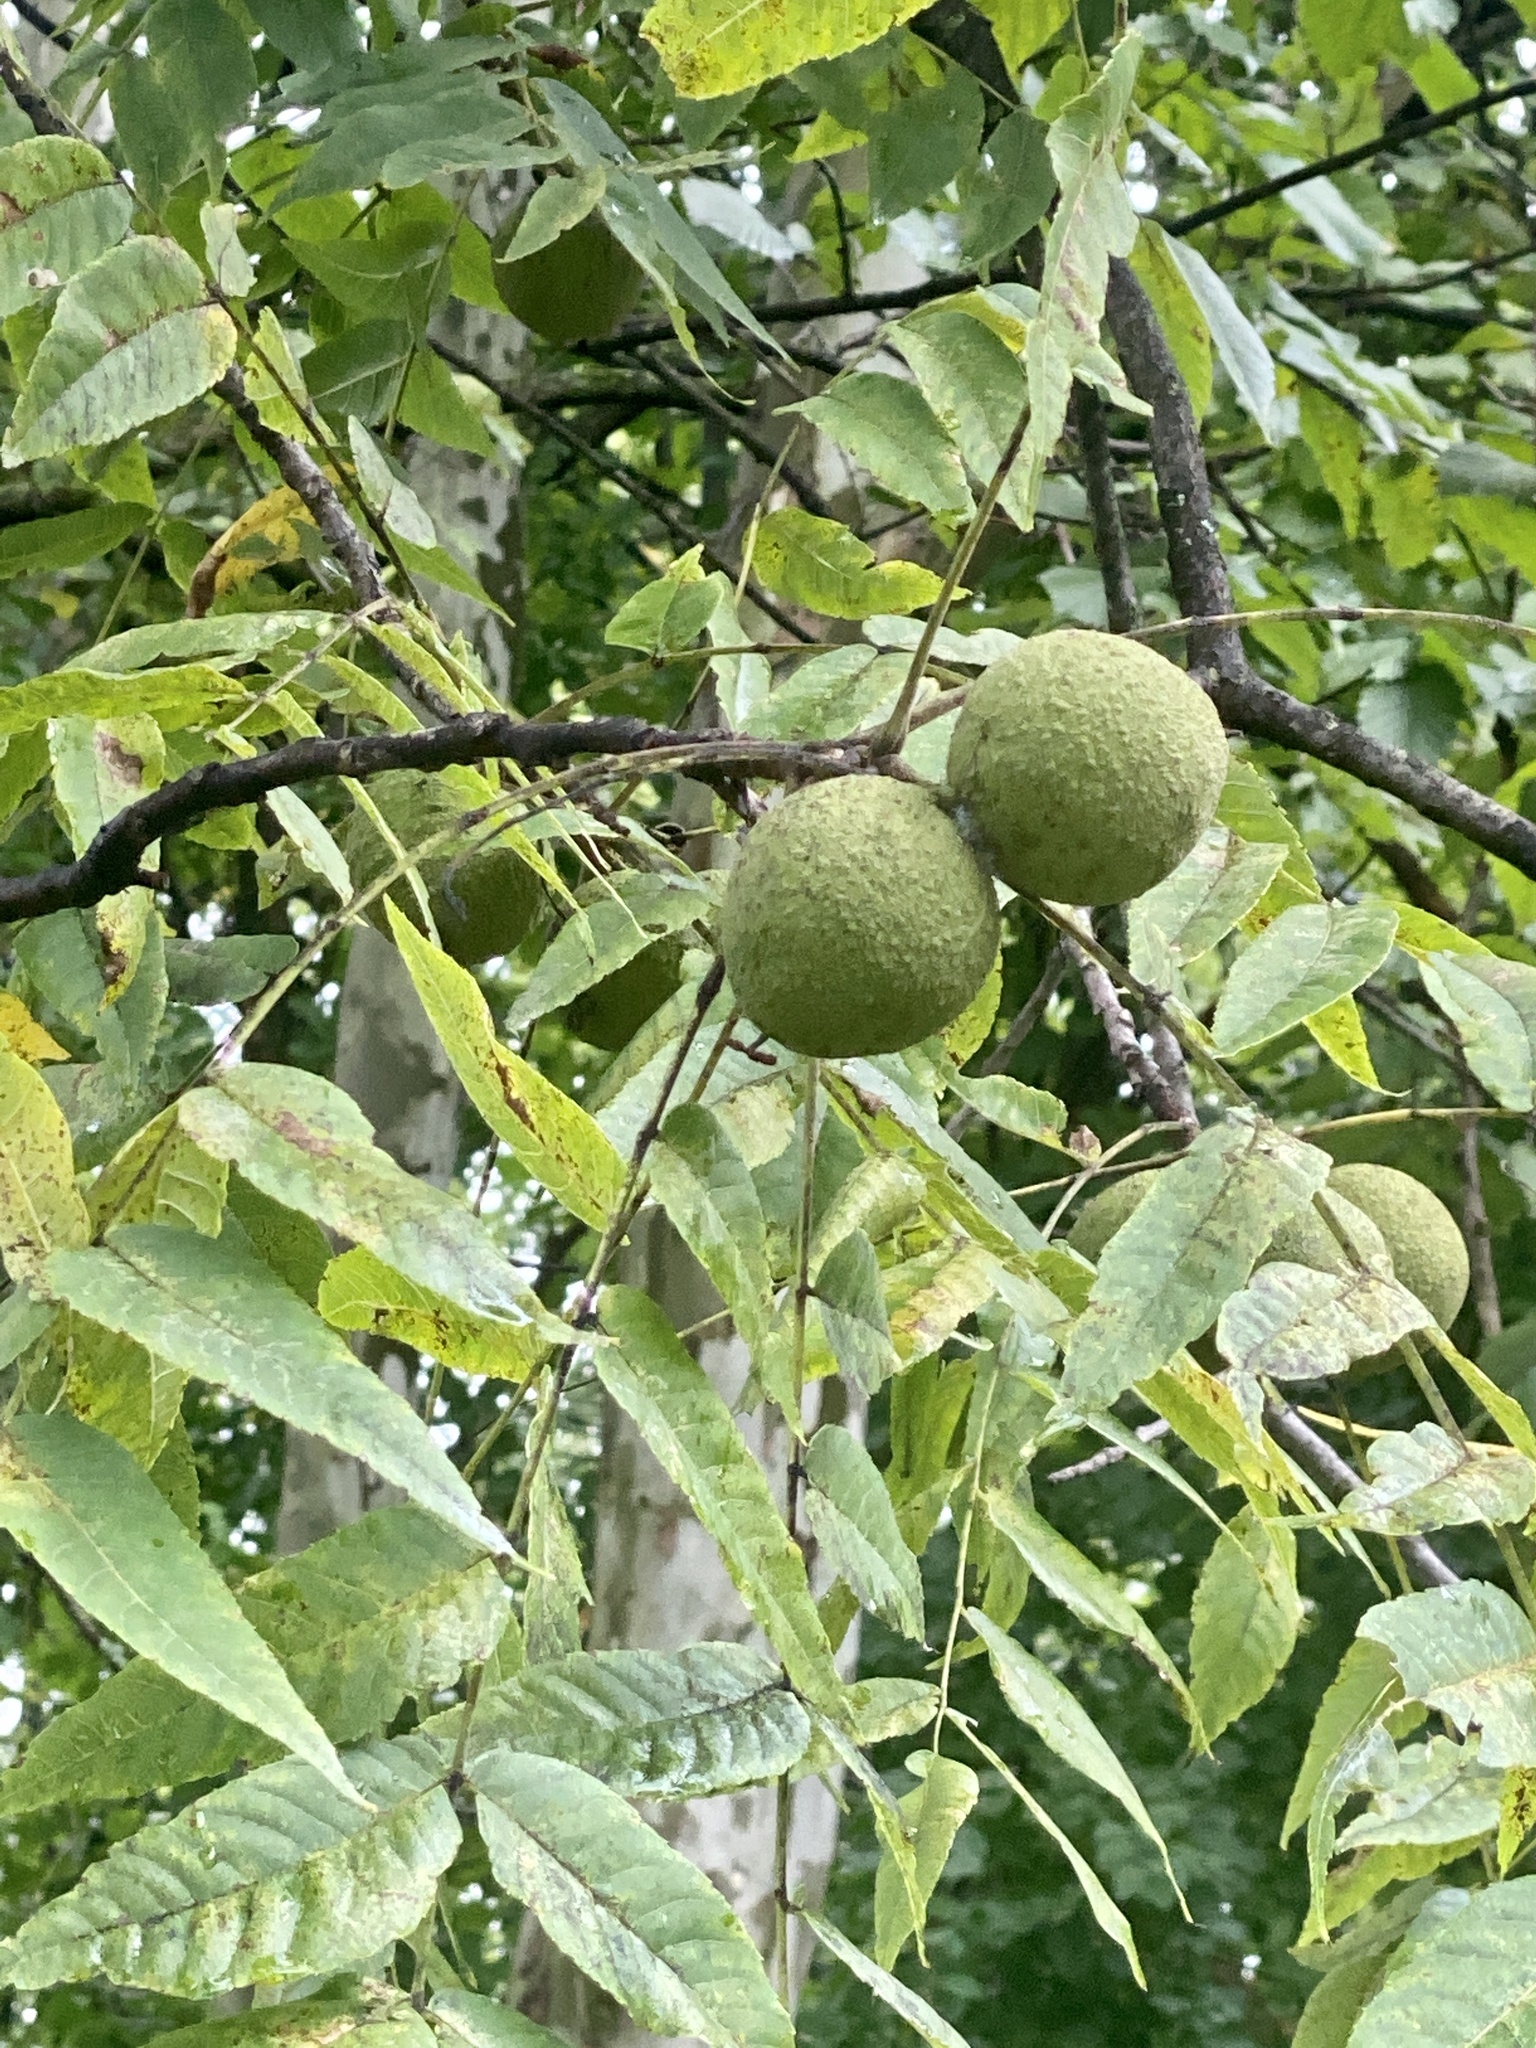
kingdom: Plantae
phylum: Tracheophyta
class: Magnoliopsida
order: Fagales
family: Juglandaceae
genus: Juglans
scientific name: Juglans nigra
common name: Black walnut
